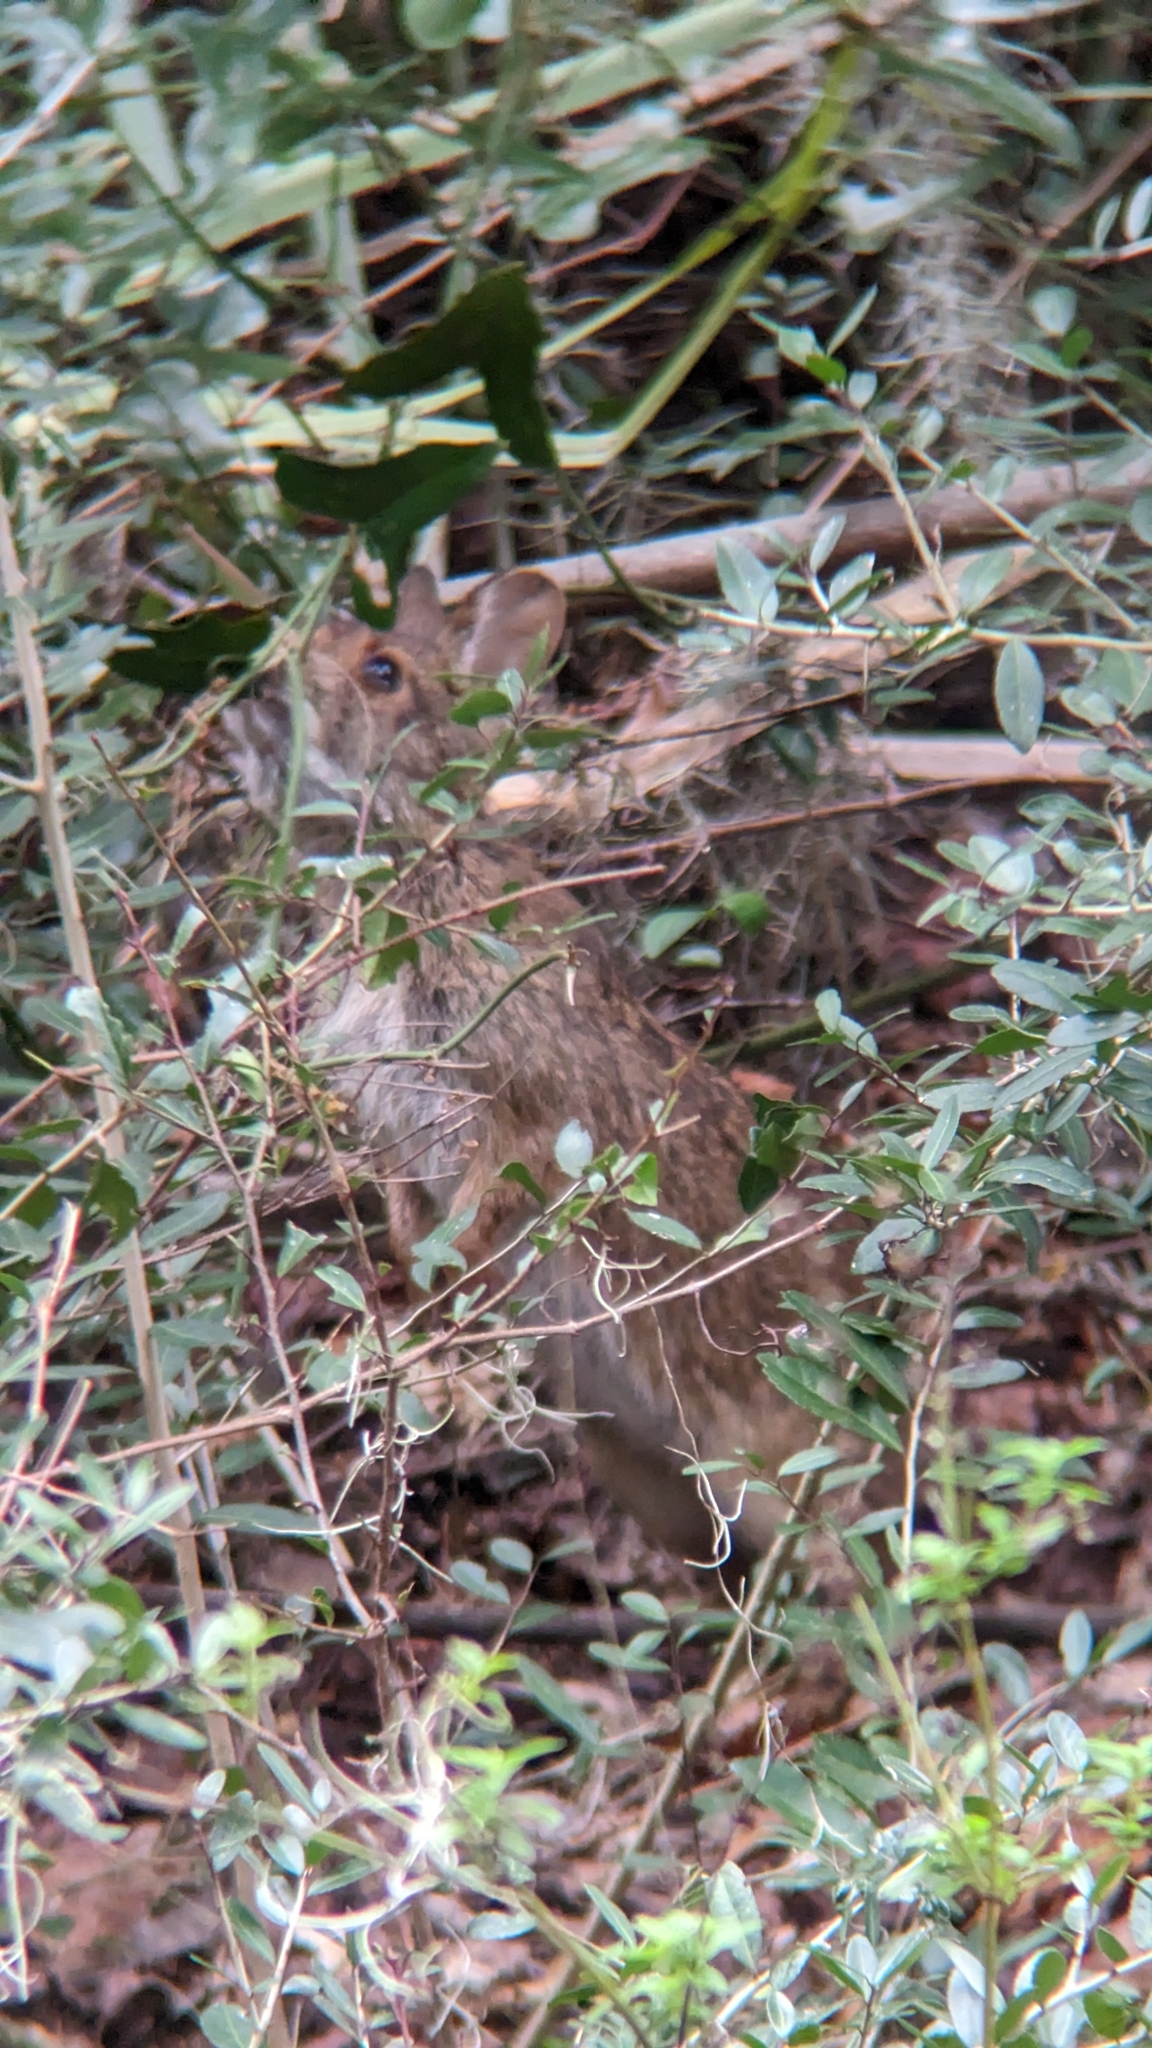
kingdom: Animalia
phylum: Chordata
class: Mammalia
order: Lagomorpha
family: Leporidae
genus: Sylvilagus
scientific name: Sylvilagus palustris
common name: Marsh rabbit
